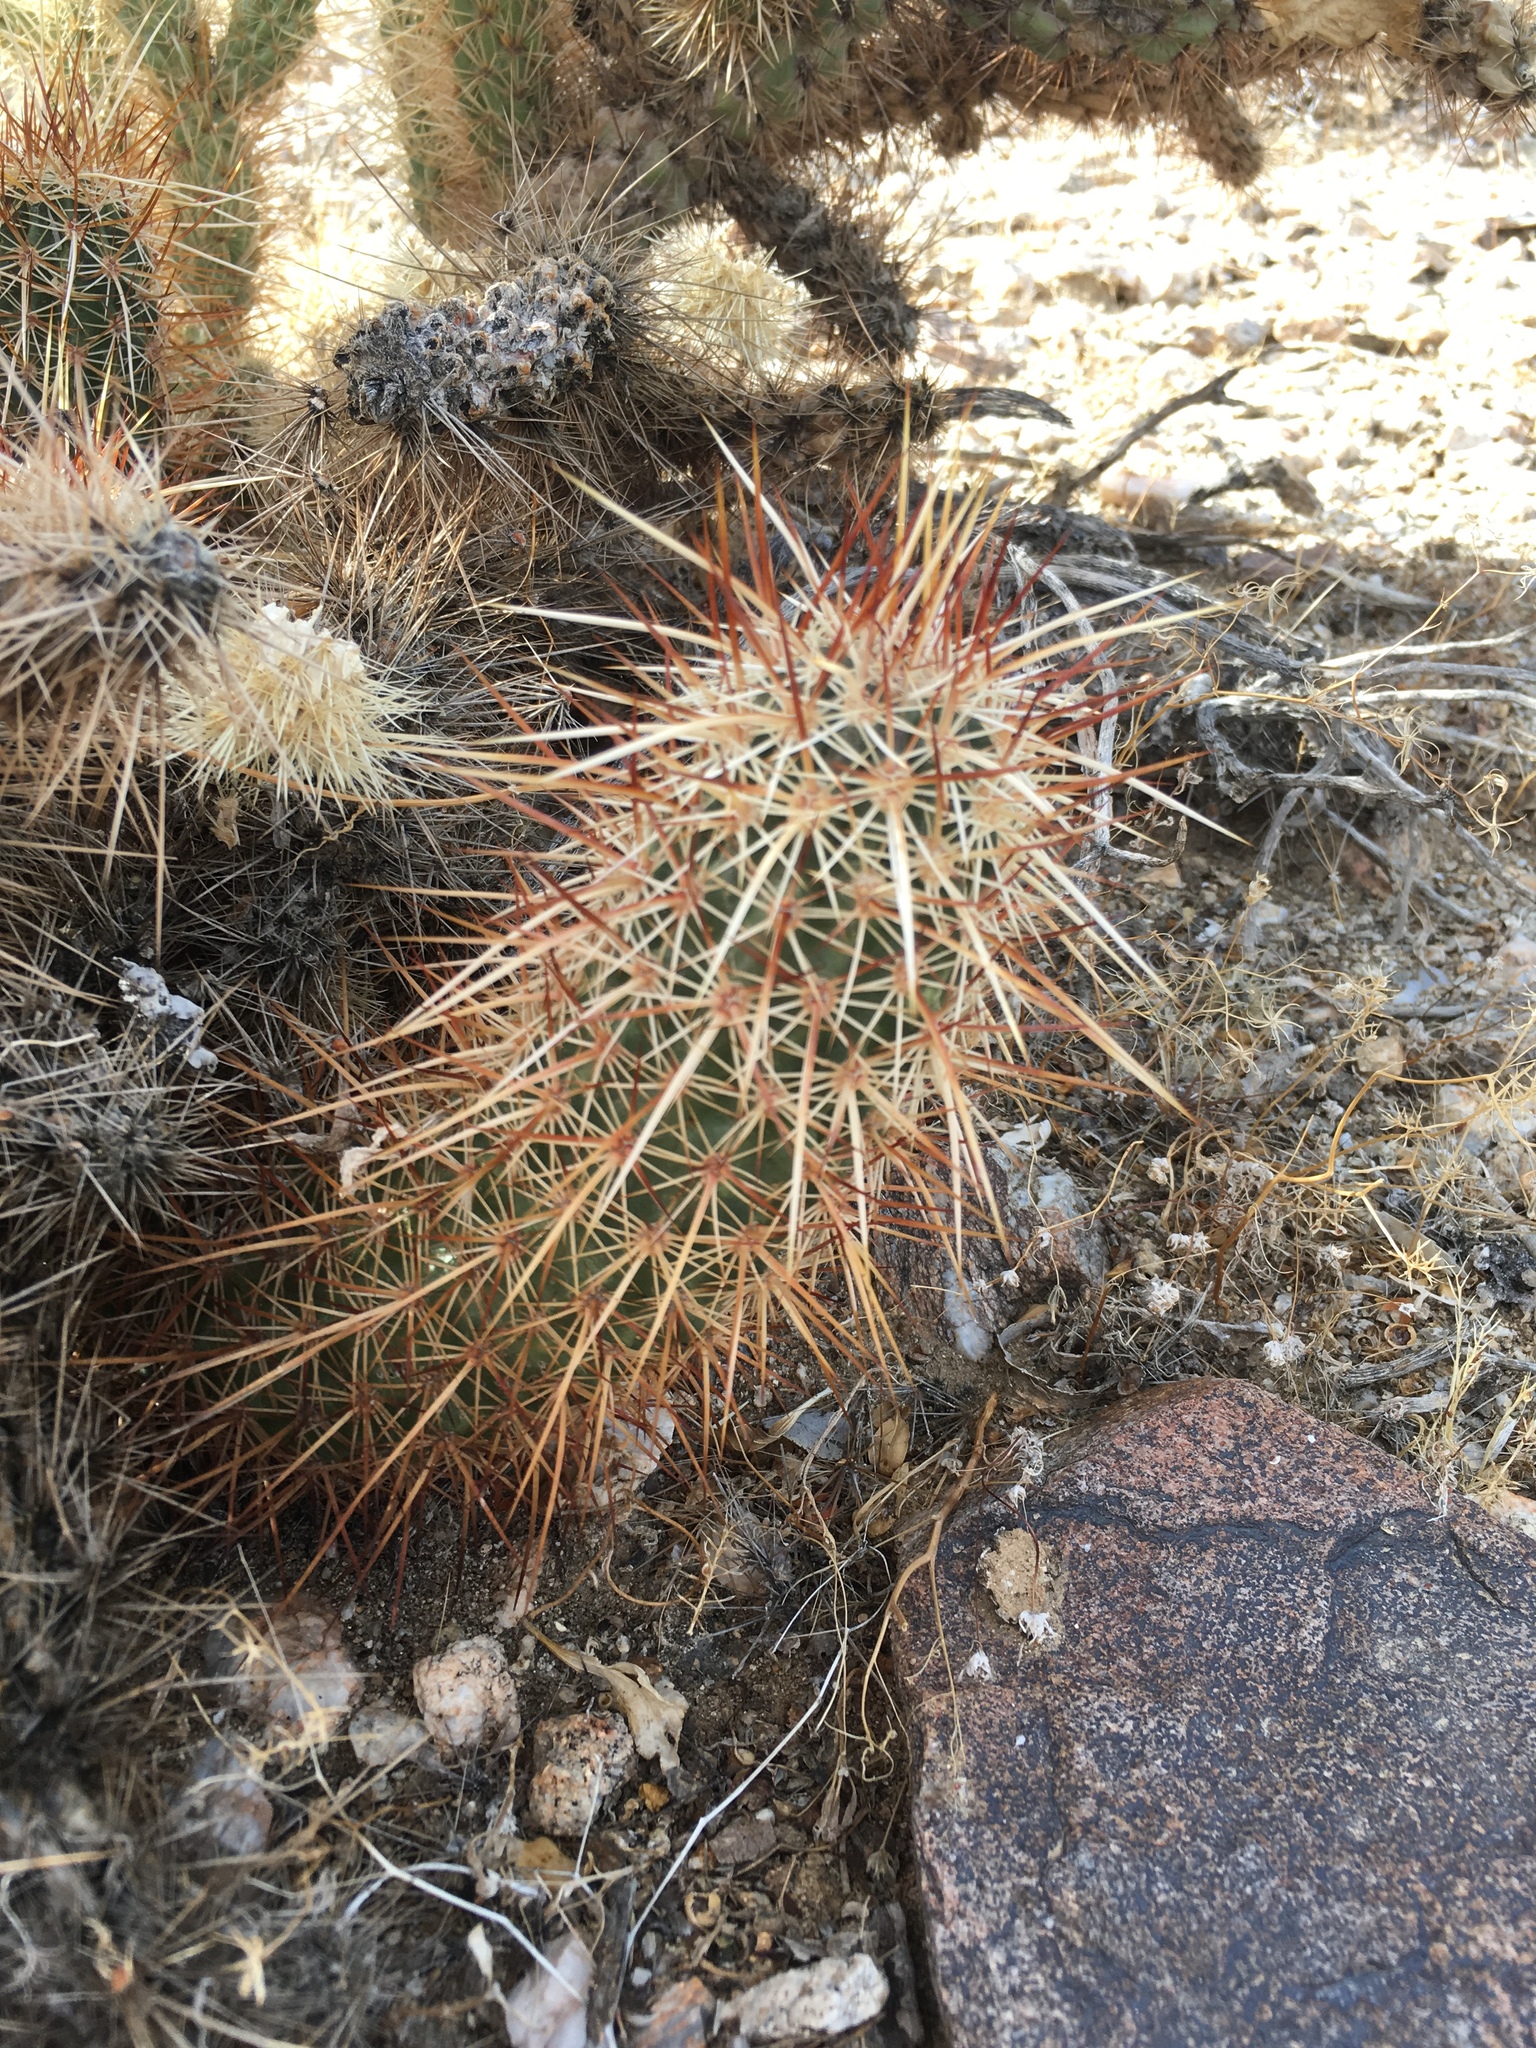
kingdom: Plantae
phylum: Tracheophyta
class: Magnoliopsida
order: Caryophyllales
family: Cactaceae
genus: Echinocereus
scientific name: Echinocereus engelmannii
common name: Engelmann's hedgehog cactus
